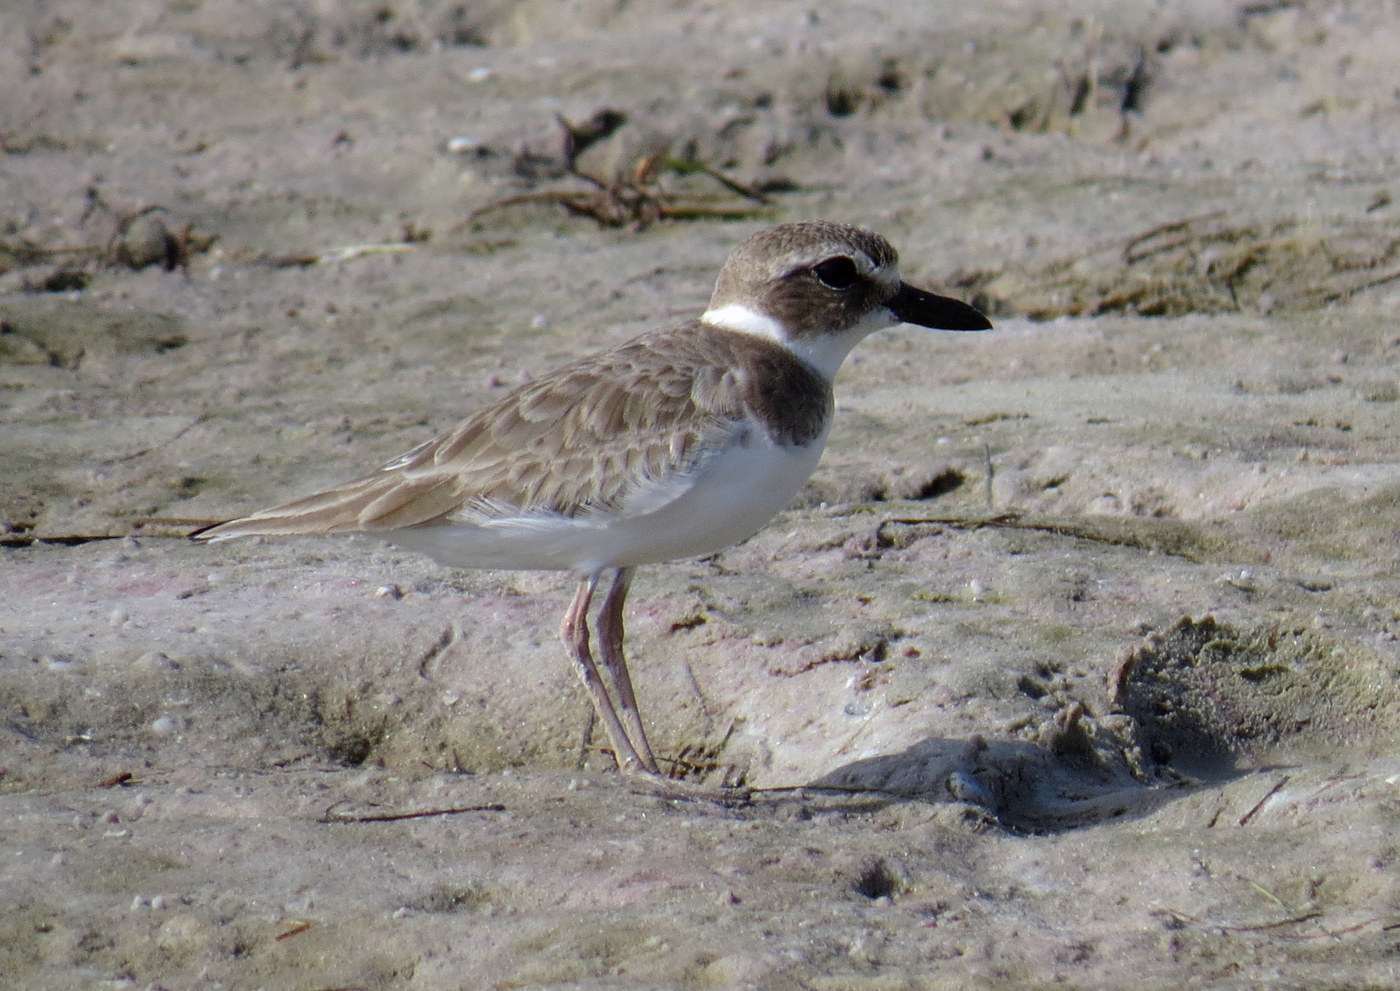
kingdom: Animalia
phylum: Chordata
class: Aves
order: Charadriiformes
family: Charadriidae
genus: Anarhynchus
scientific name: Anarhynchus
